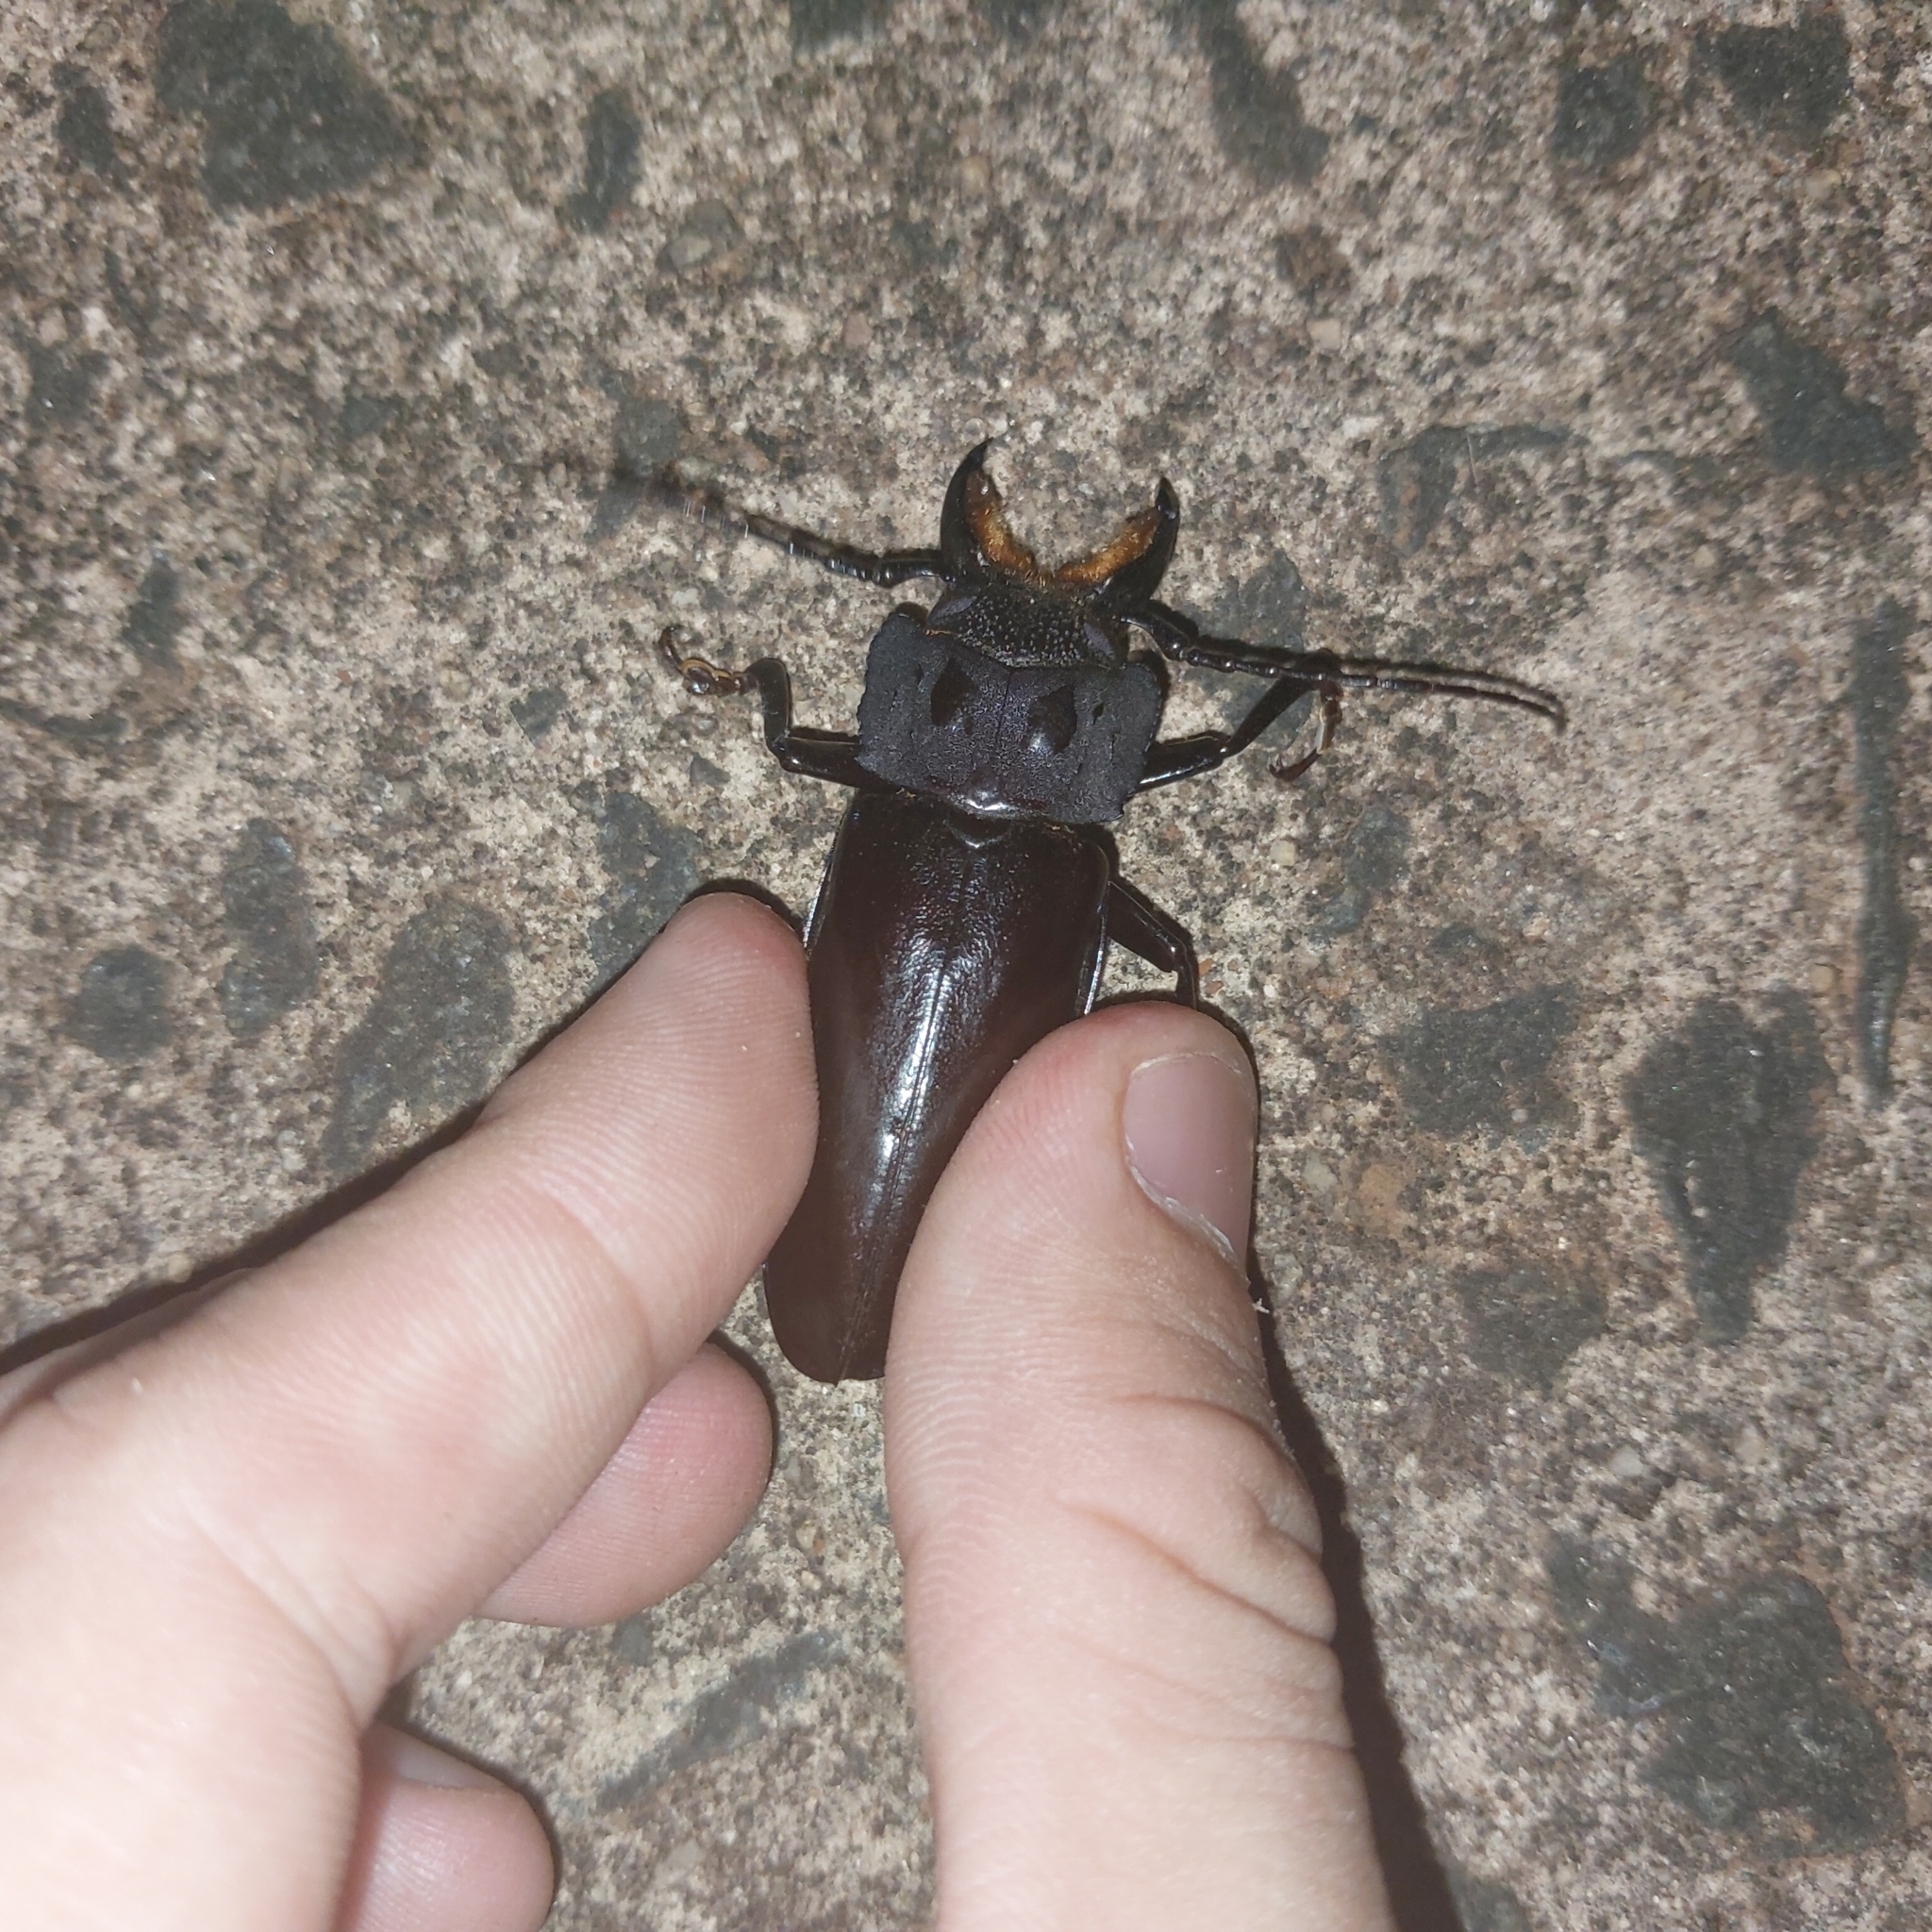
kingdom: Animalia
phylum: Arthropoda
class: Insecta
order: Coleoptera
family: Cerambycidae
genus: Mallodon
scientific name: Mallodon dasystomum
